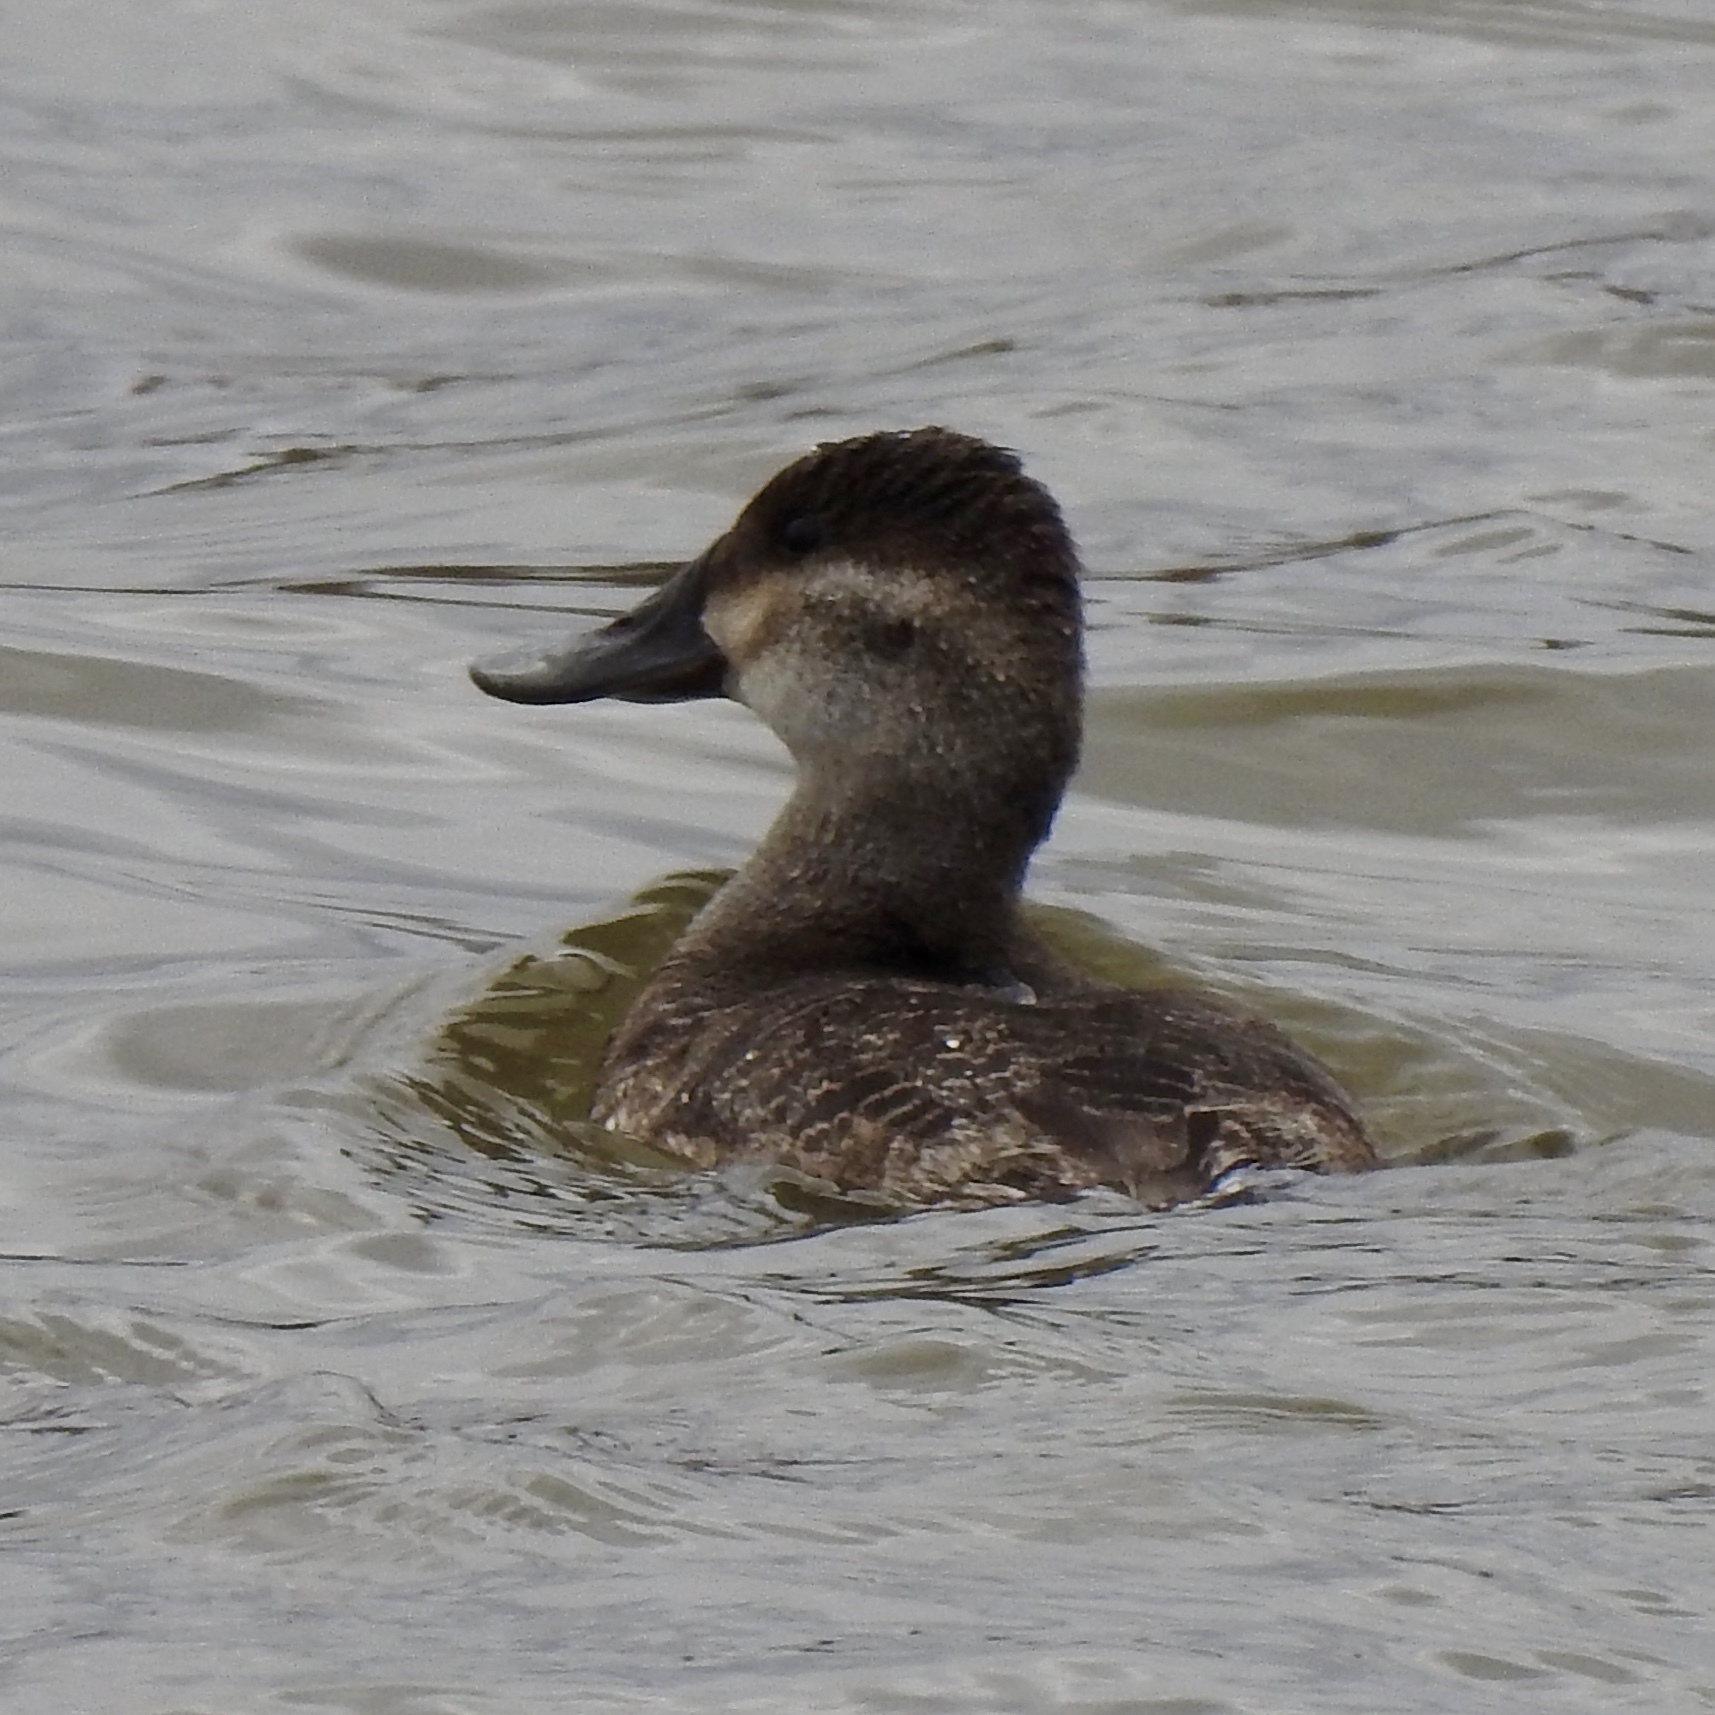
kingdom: Animalia
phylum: Chordata
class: Aves
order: Anseriformes
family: Anatidae
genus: Oxyura
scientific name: Oxyura jamaicensis
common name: Ruddy duck
